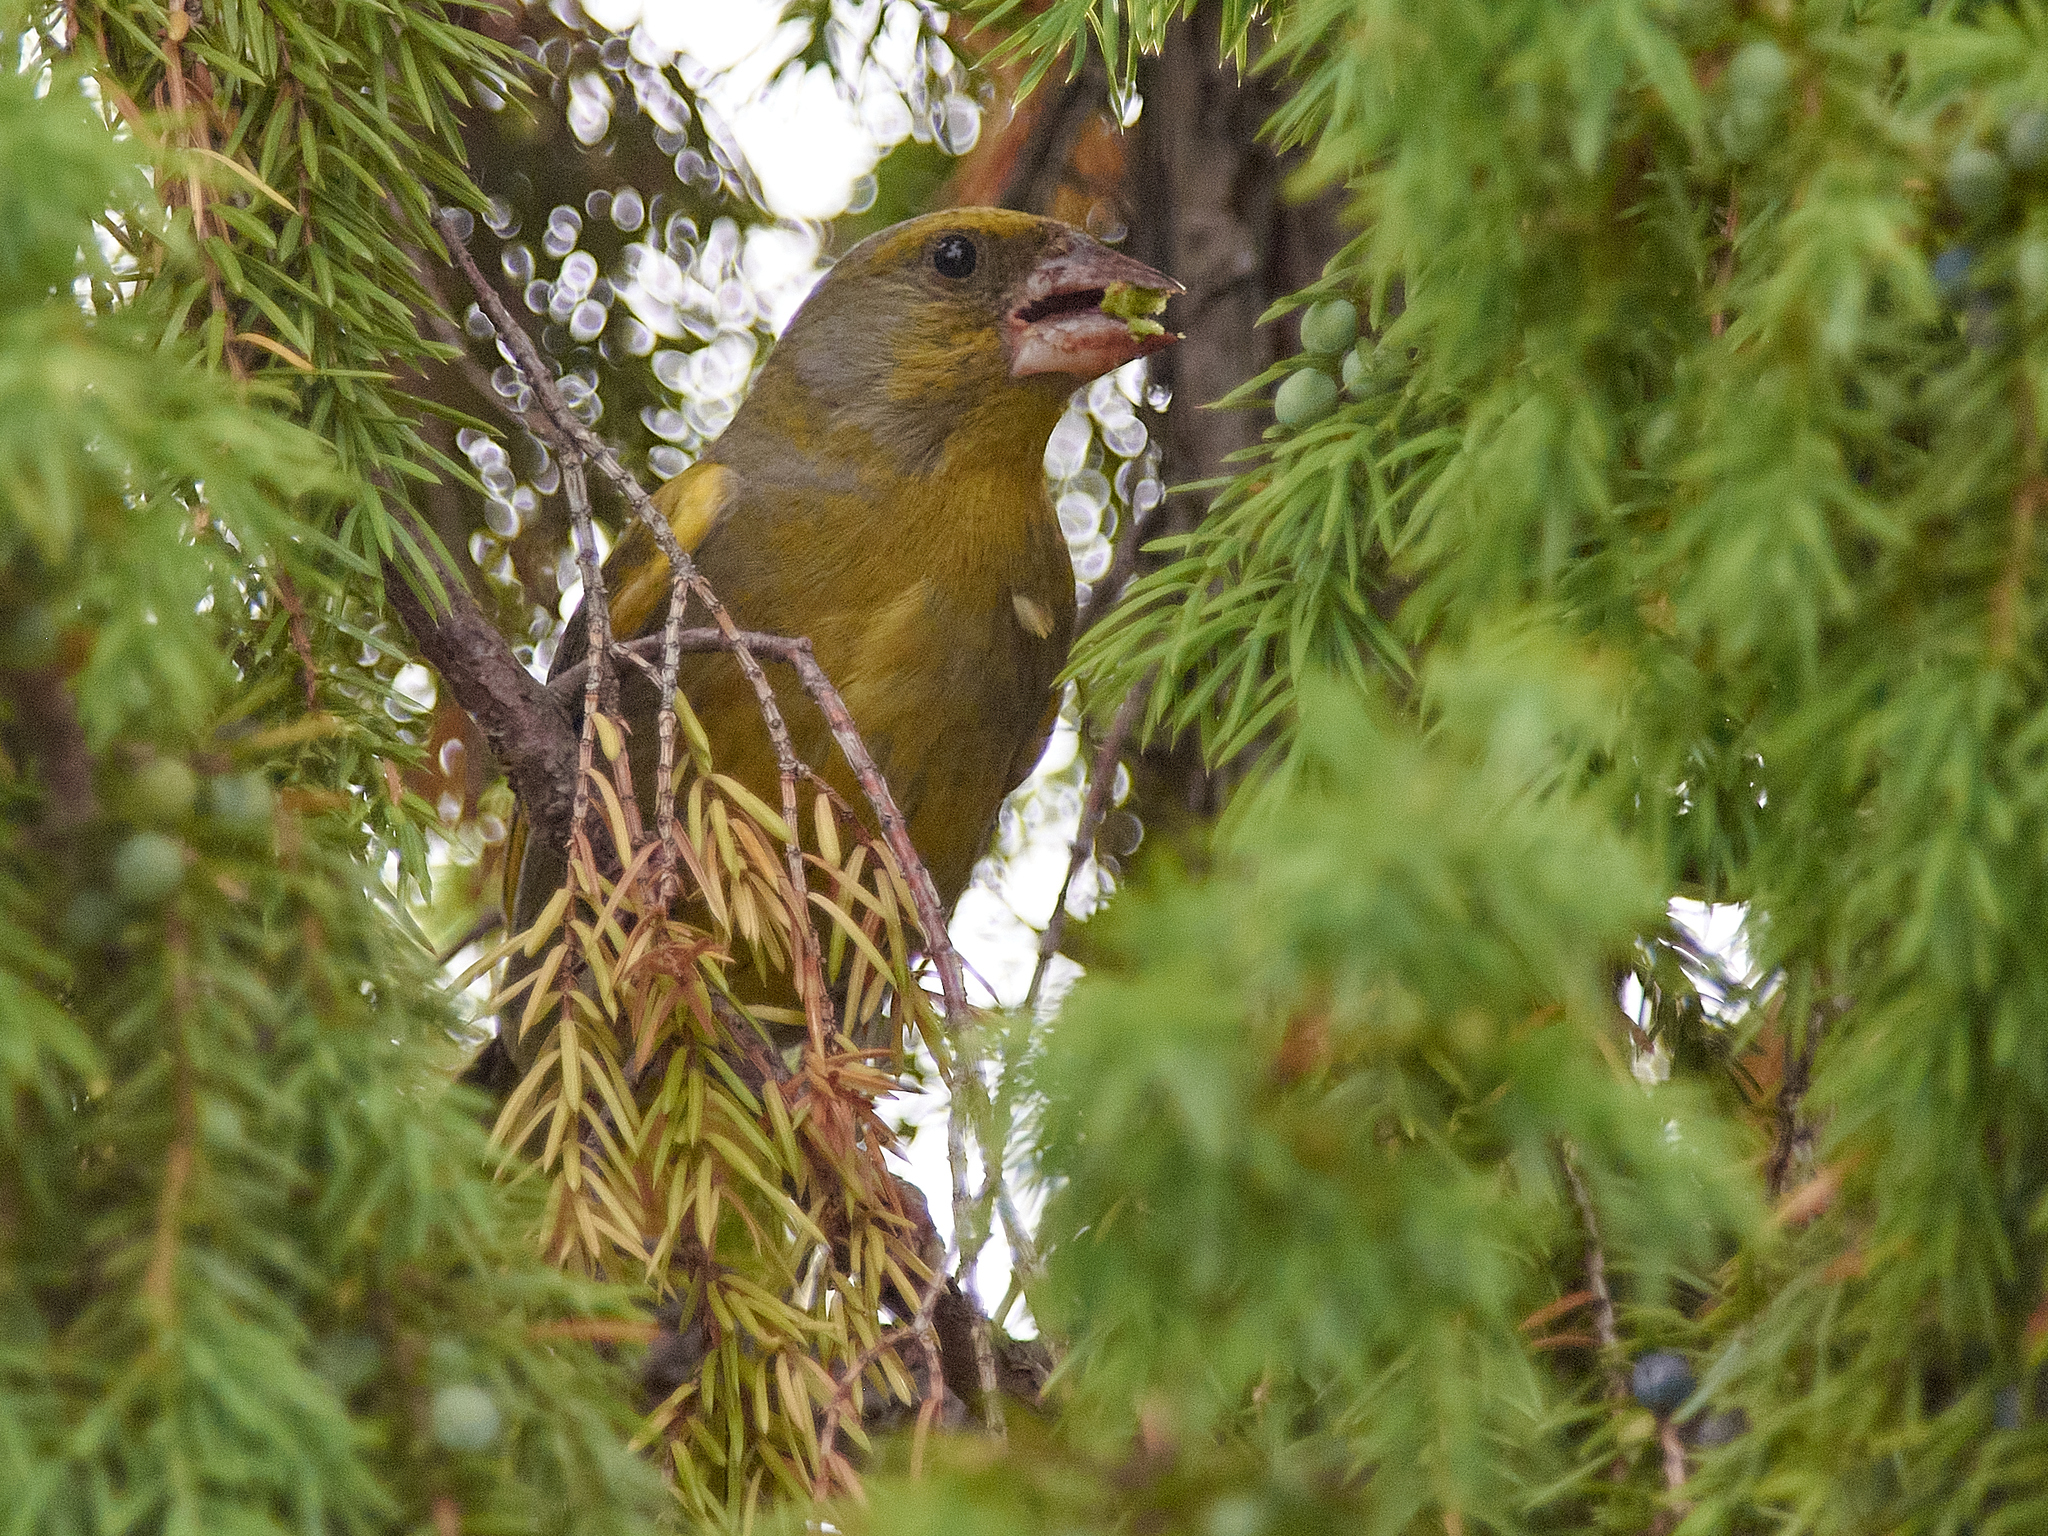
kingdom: Plantae
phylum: Tracheophyta
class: Liliopsida
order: Poales
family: Poaceae
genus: Chloris
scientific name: Chloris chloris
